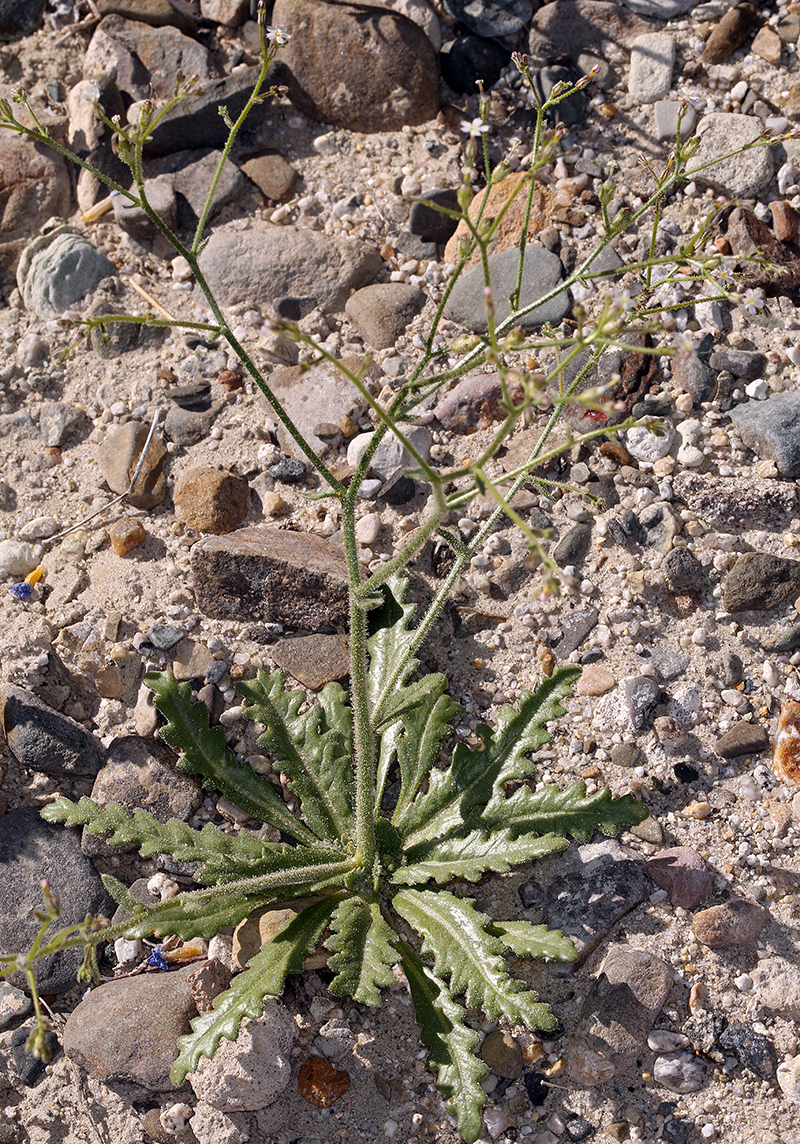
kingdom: Plantae
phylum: Tracheophyta
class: Magnoliopsida
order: Ericales
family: Polemoniaceae
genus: Aliciella
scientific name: Aliciella triodon
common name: Coyote gilia
